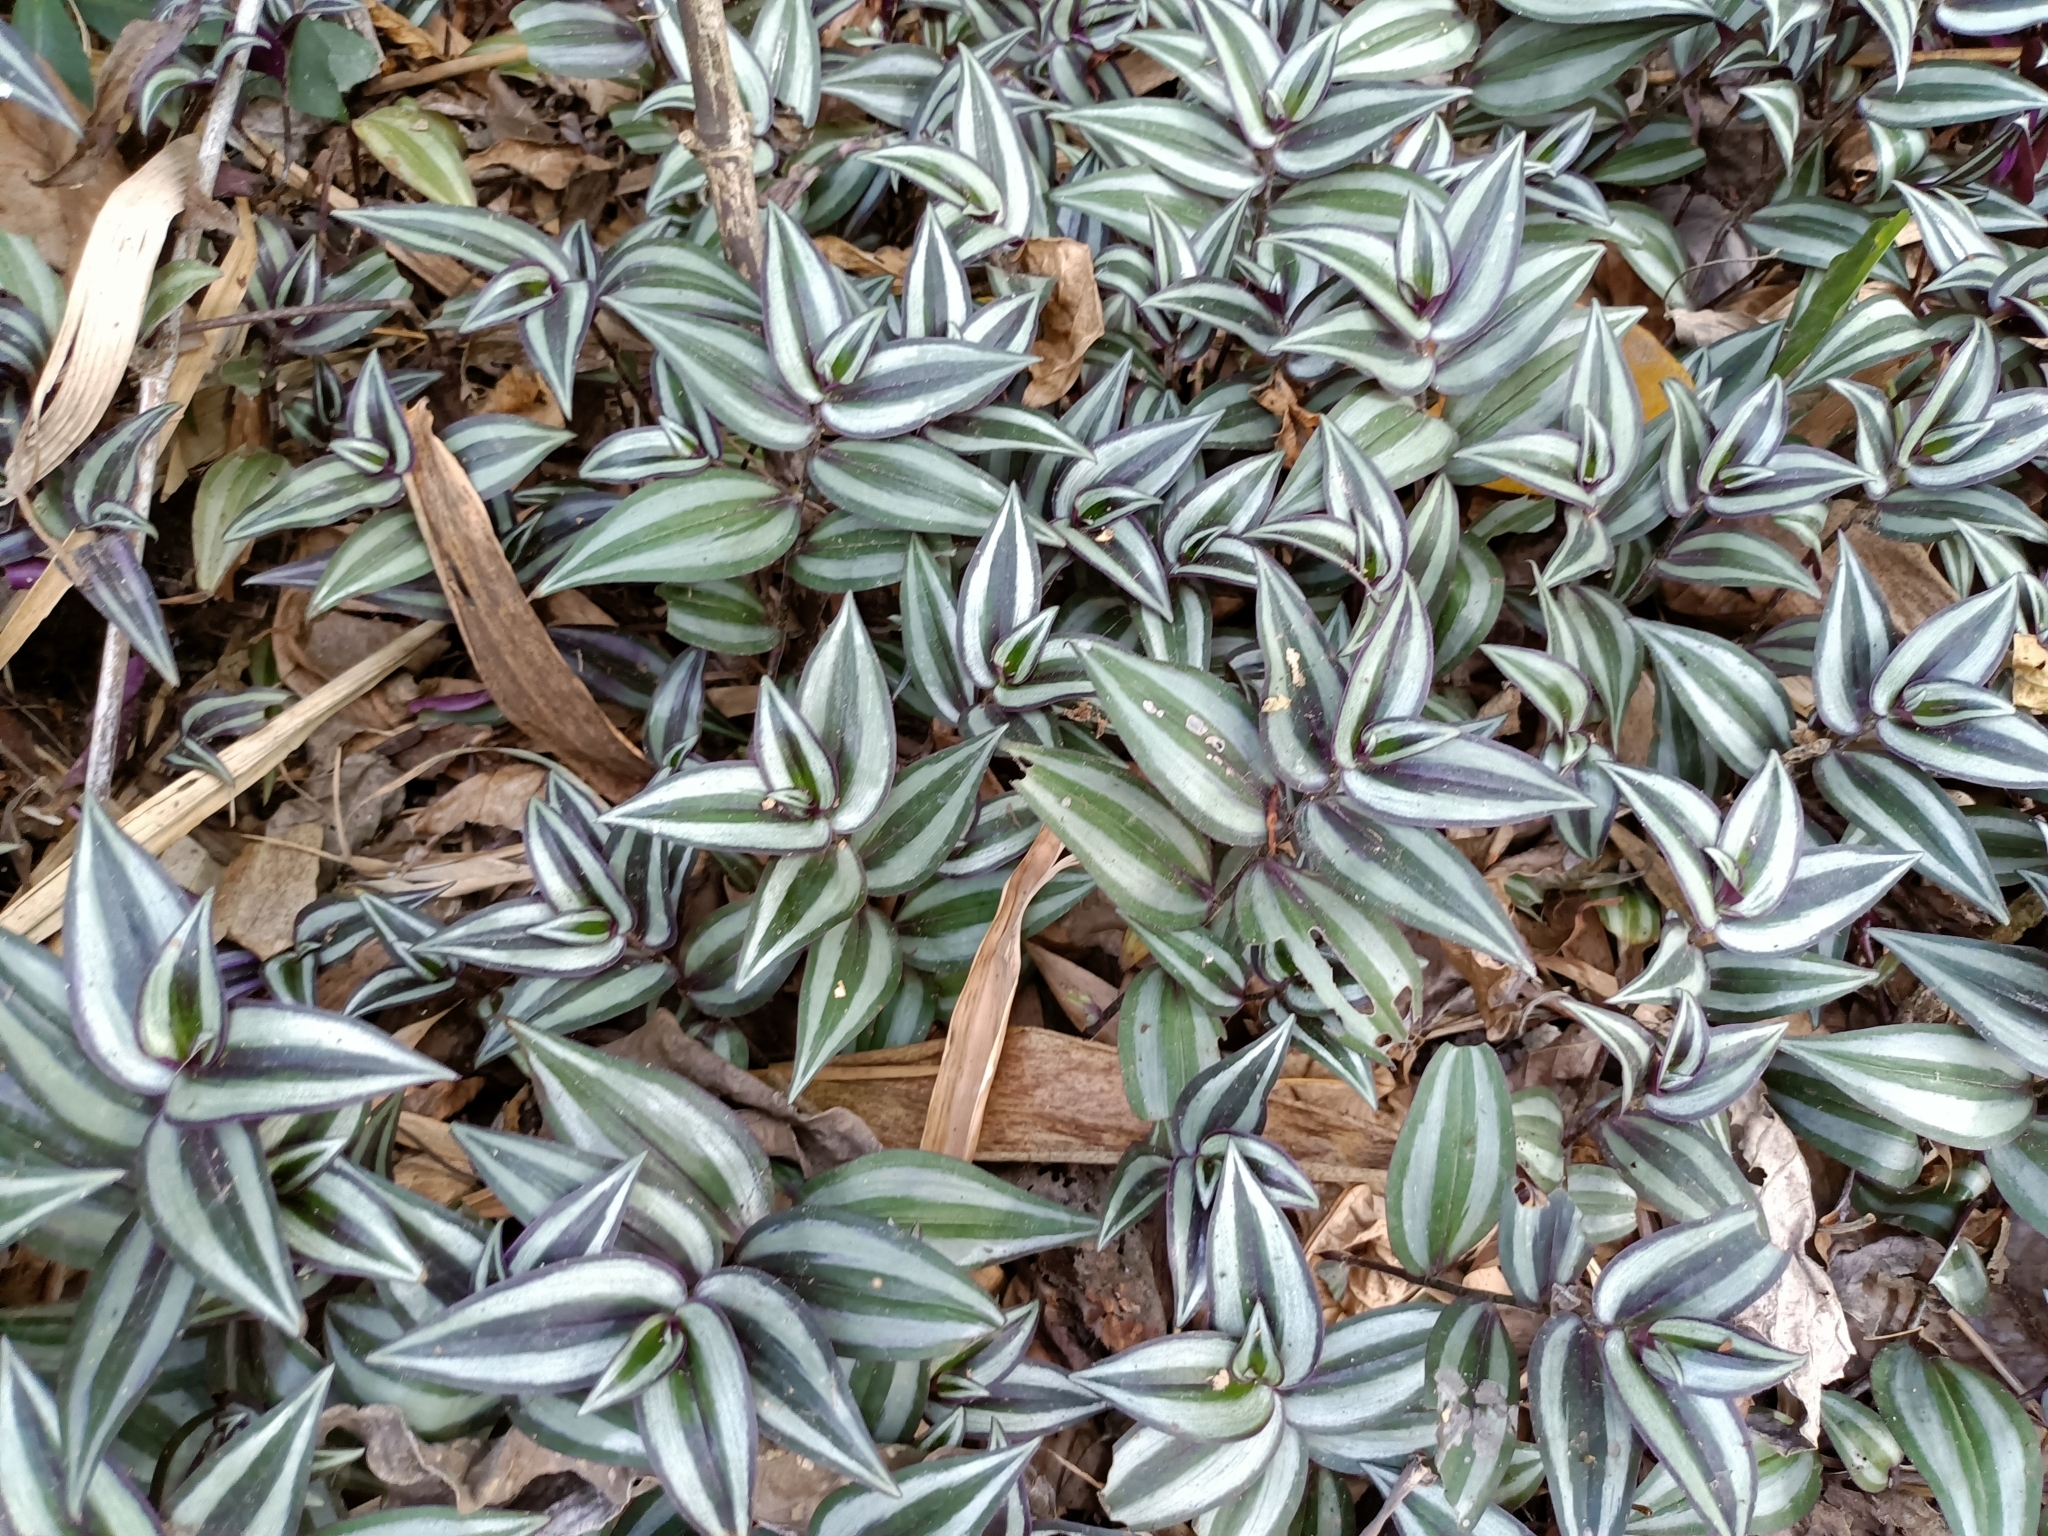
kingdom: Plantae
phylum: Tracheophyta
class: Liliopsida
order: Commelinales
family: Commelinaceae
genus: Tradescantia
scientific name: Tradescantia zebrina
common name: Inchplant
